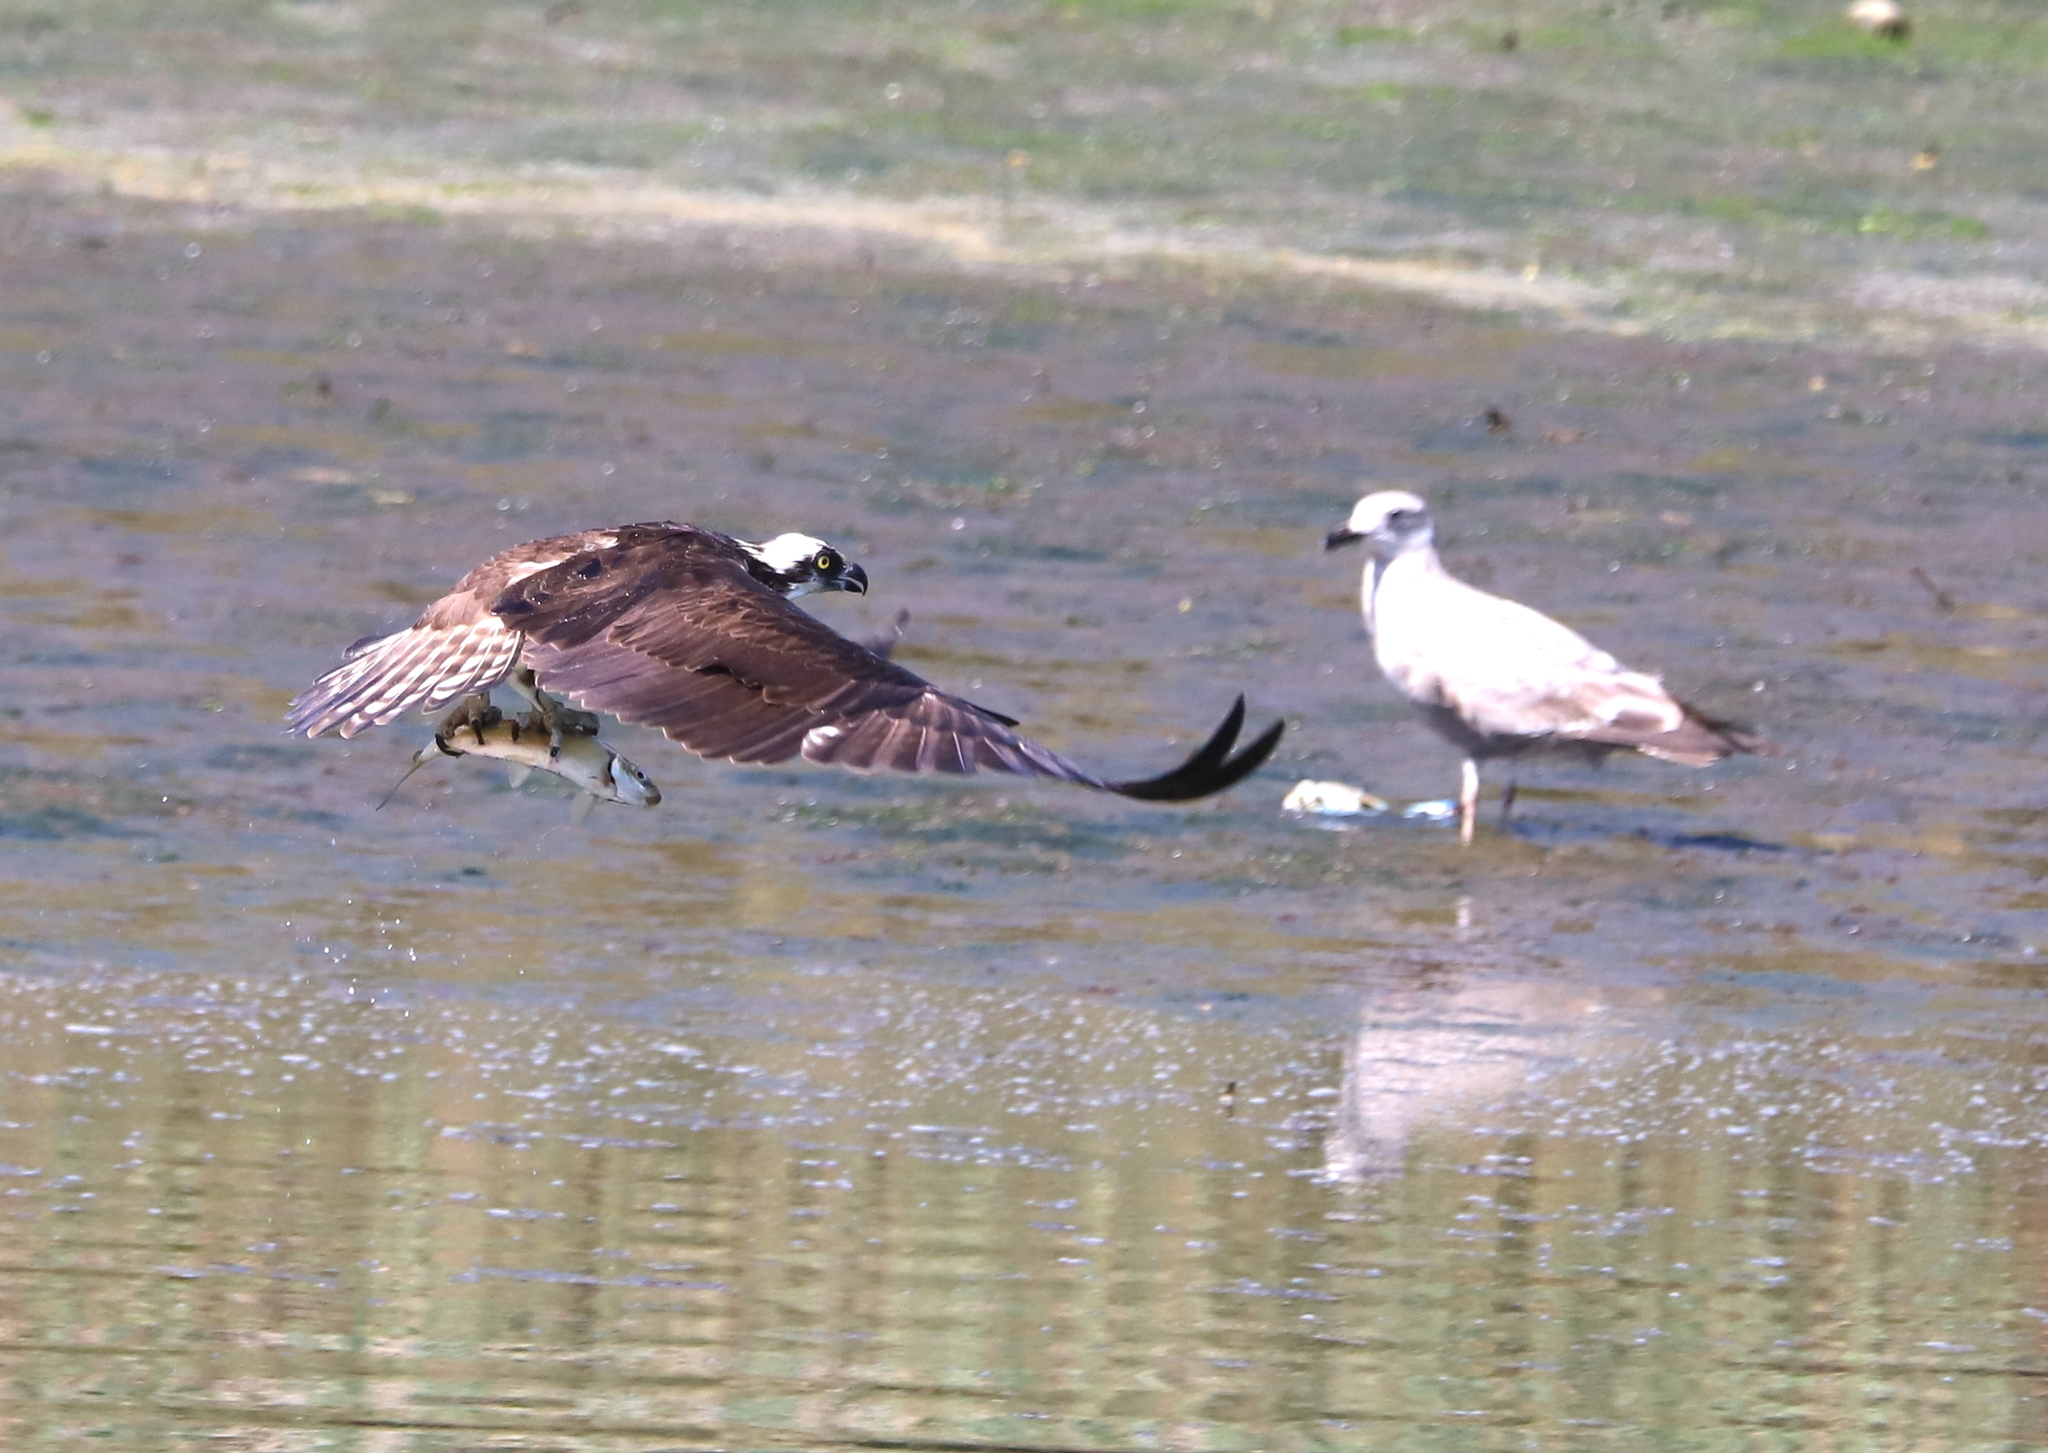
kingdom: Animalia
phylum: Chordata
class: Aves
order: Accipitriformes
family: Pandionidae
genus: Pandion
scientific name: Pandion haliaetus
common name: Osprey
